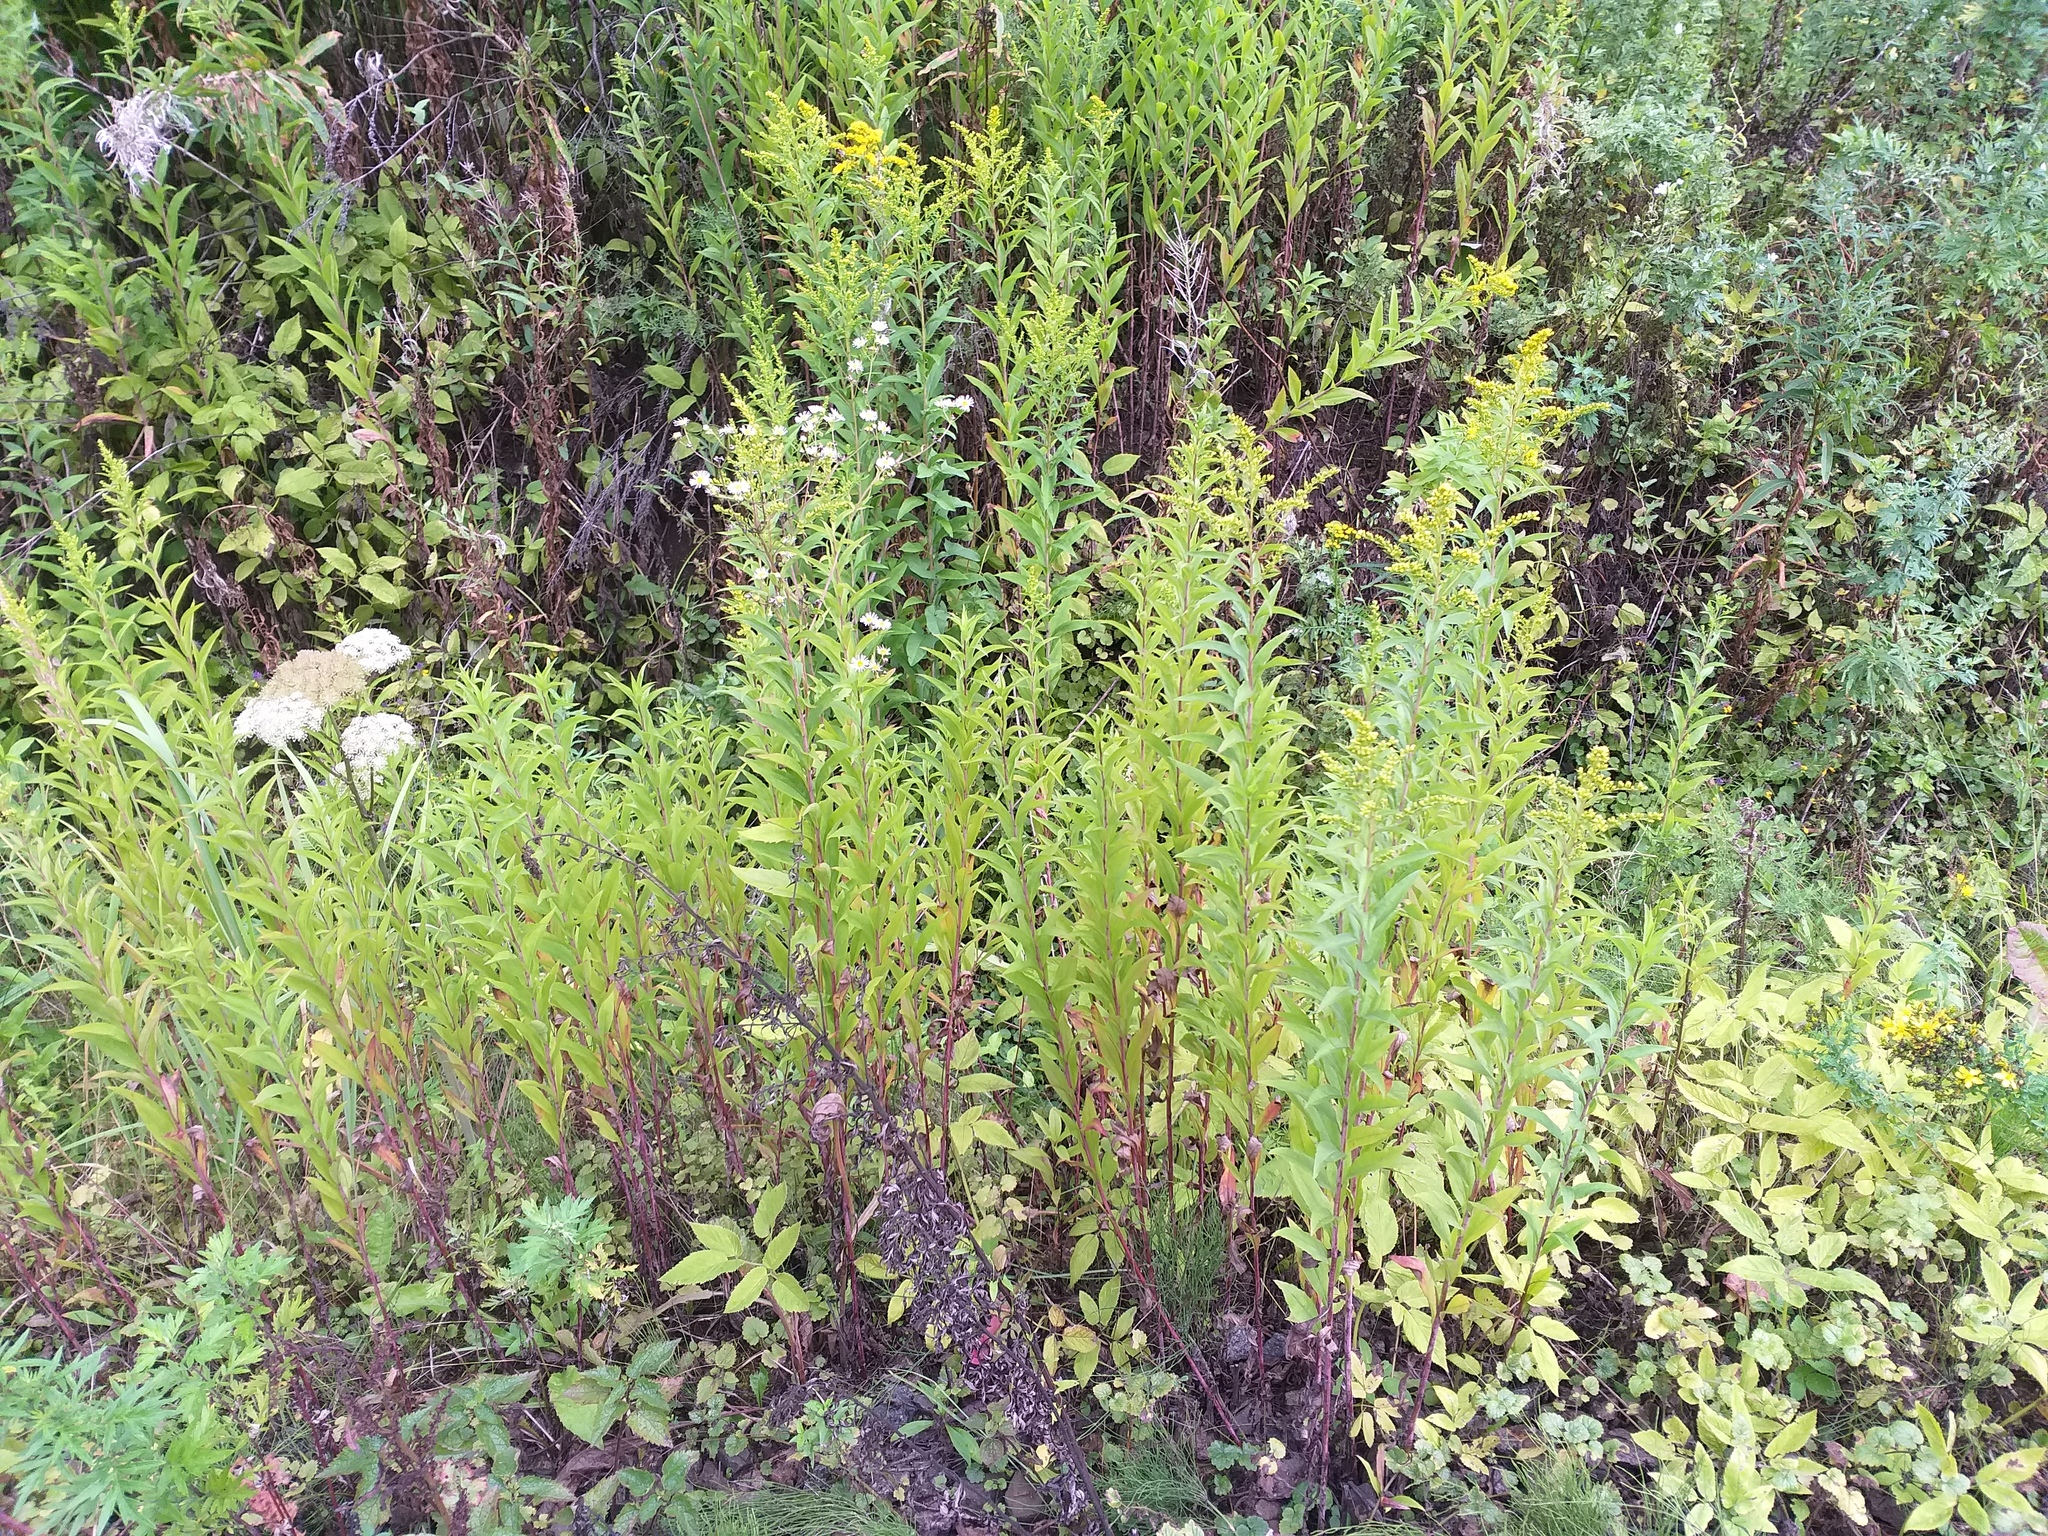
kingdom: Plantae
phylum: Tracheophyta
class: Magnoliopsida
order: Asterales
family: Asteraceae
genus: Solidago
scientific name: Solidago gigantea
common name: Giant goldenrod
